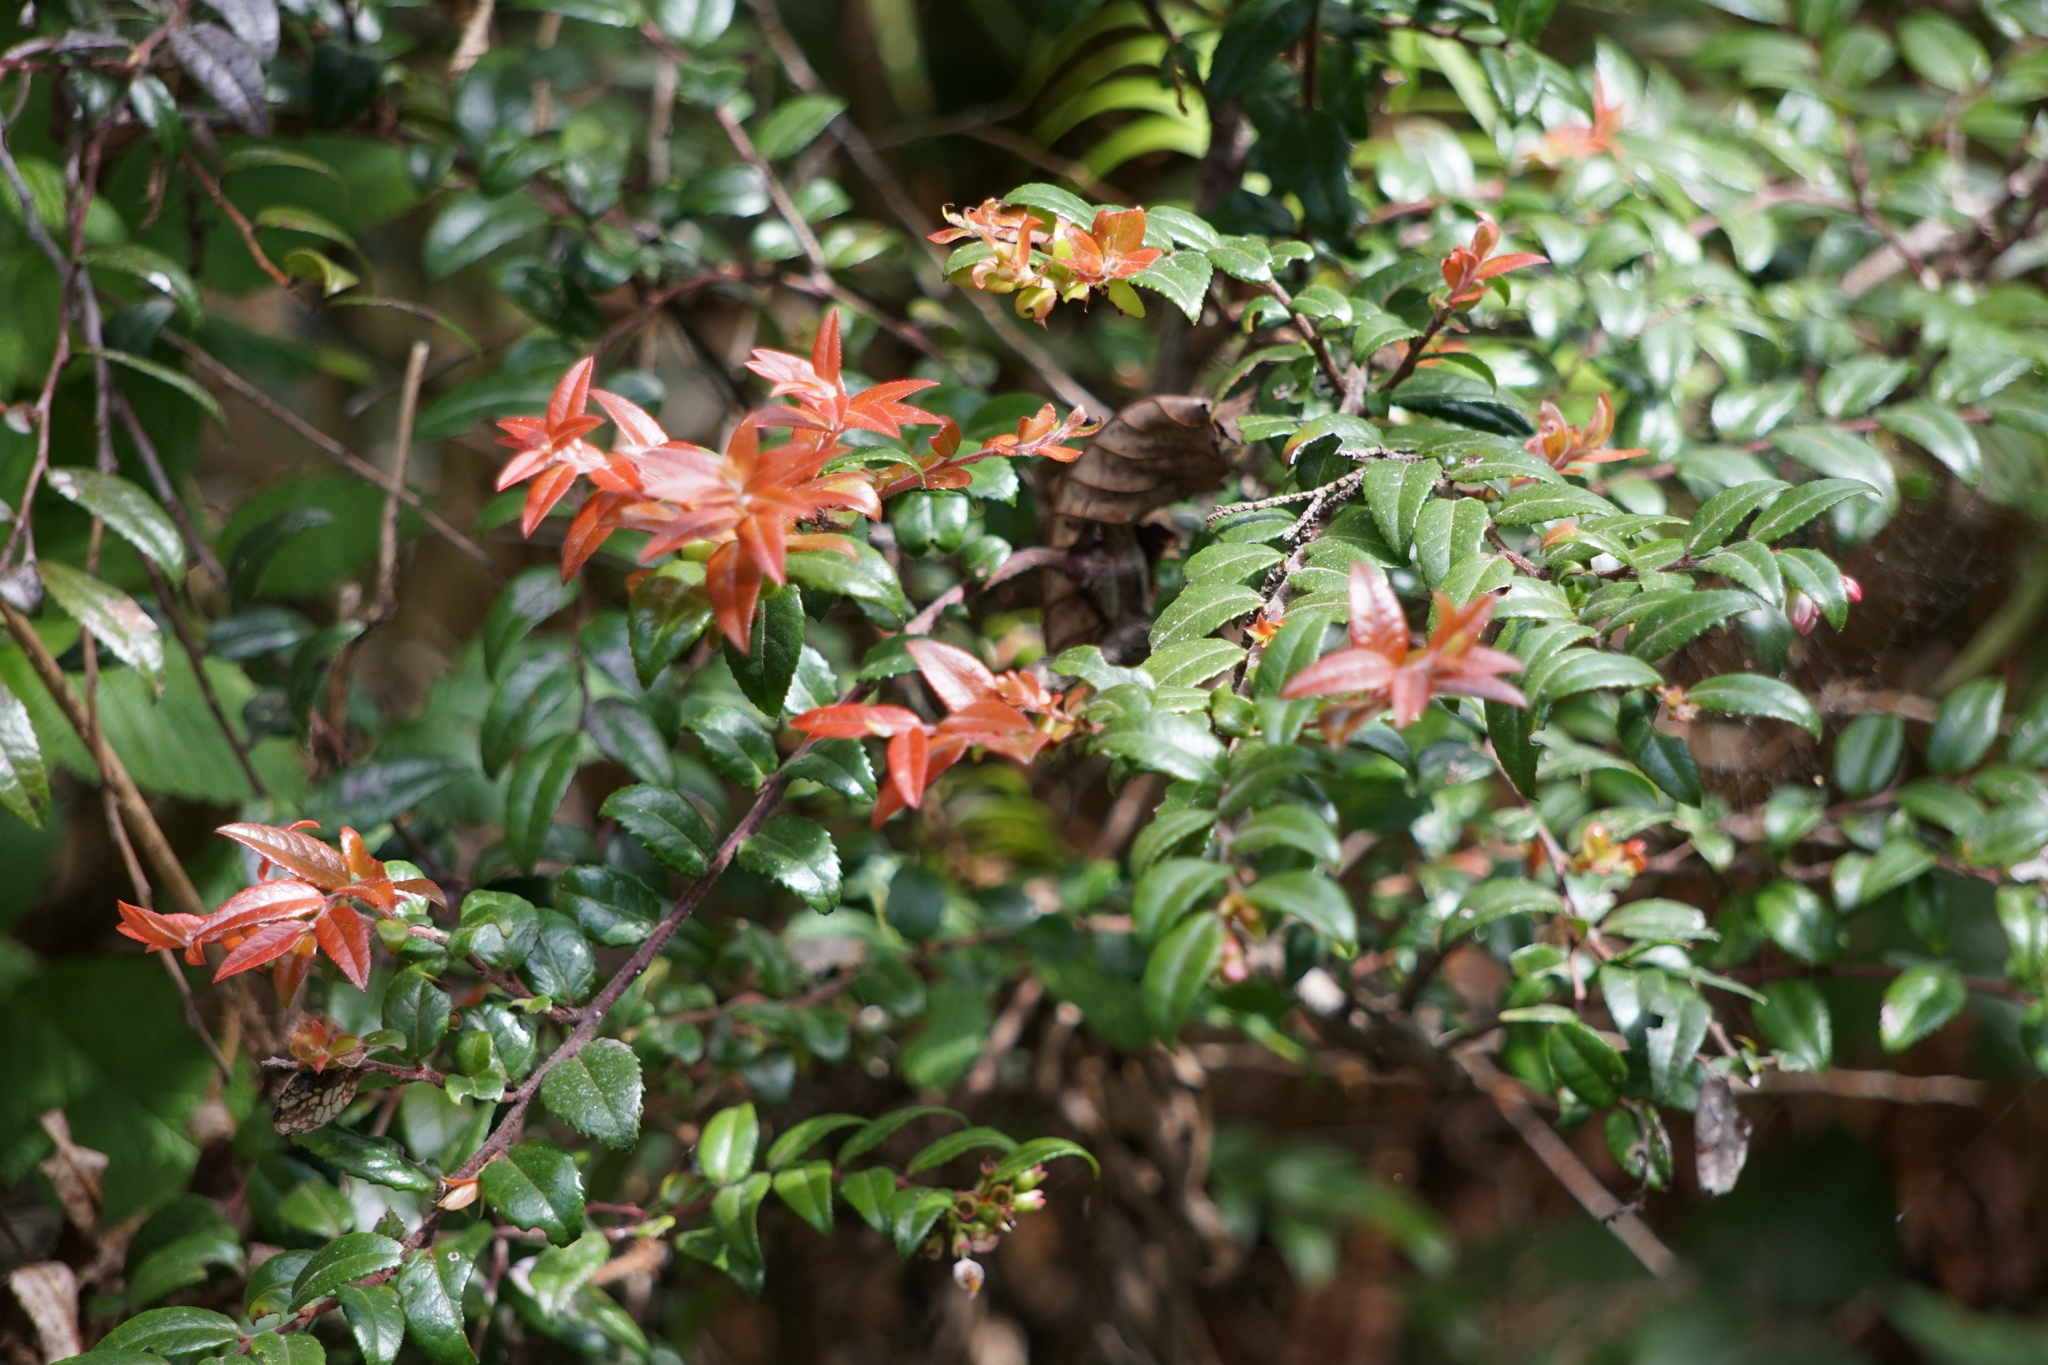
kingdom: Plantae
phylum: Tracheophyta
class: Magnoliopsida
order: Ericales
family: Ericaceae
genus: Vaccinium
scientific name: Vaccinium ovatum
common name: California-huckleberry
